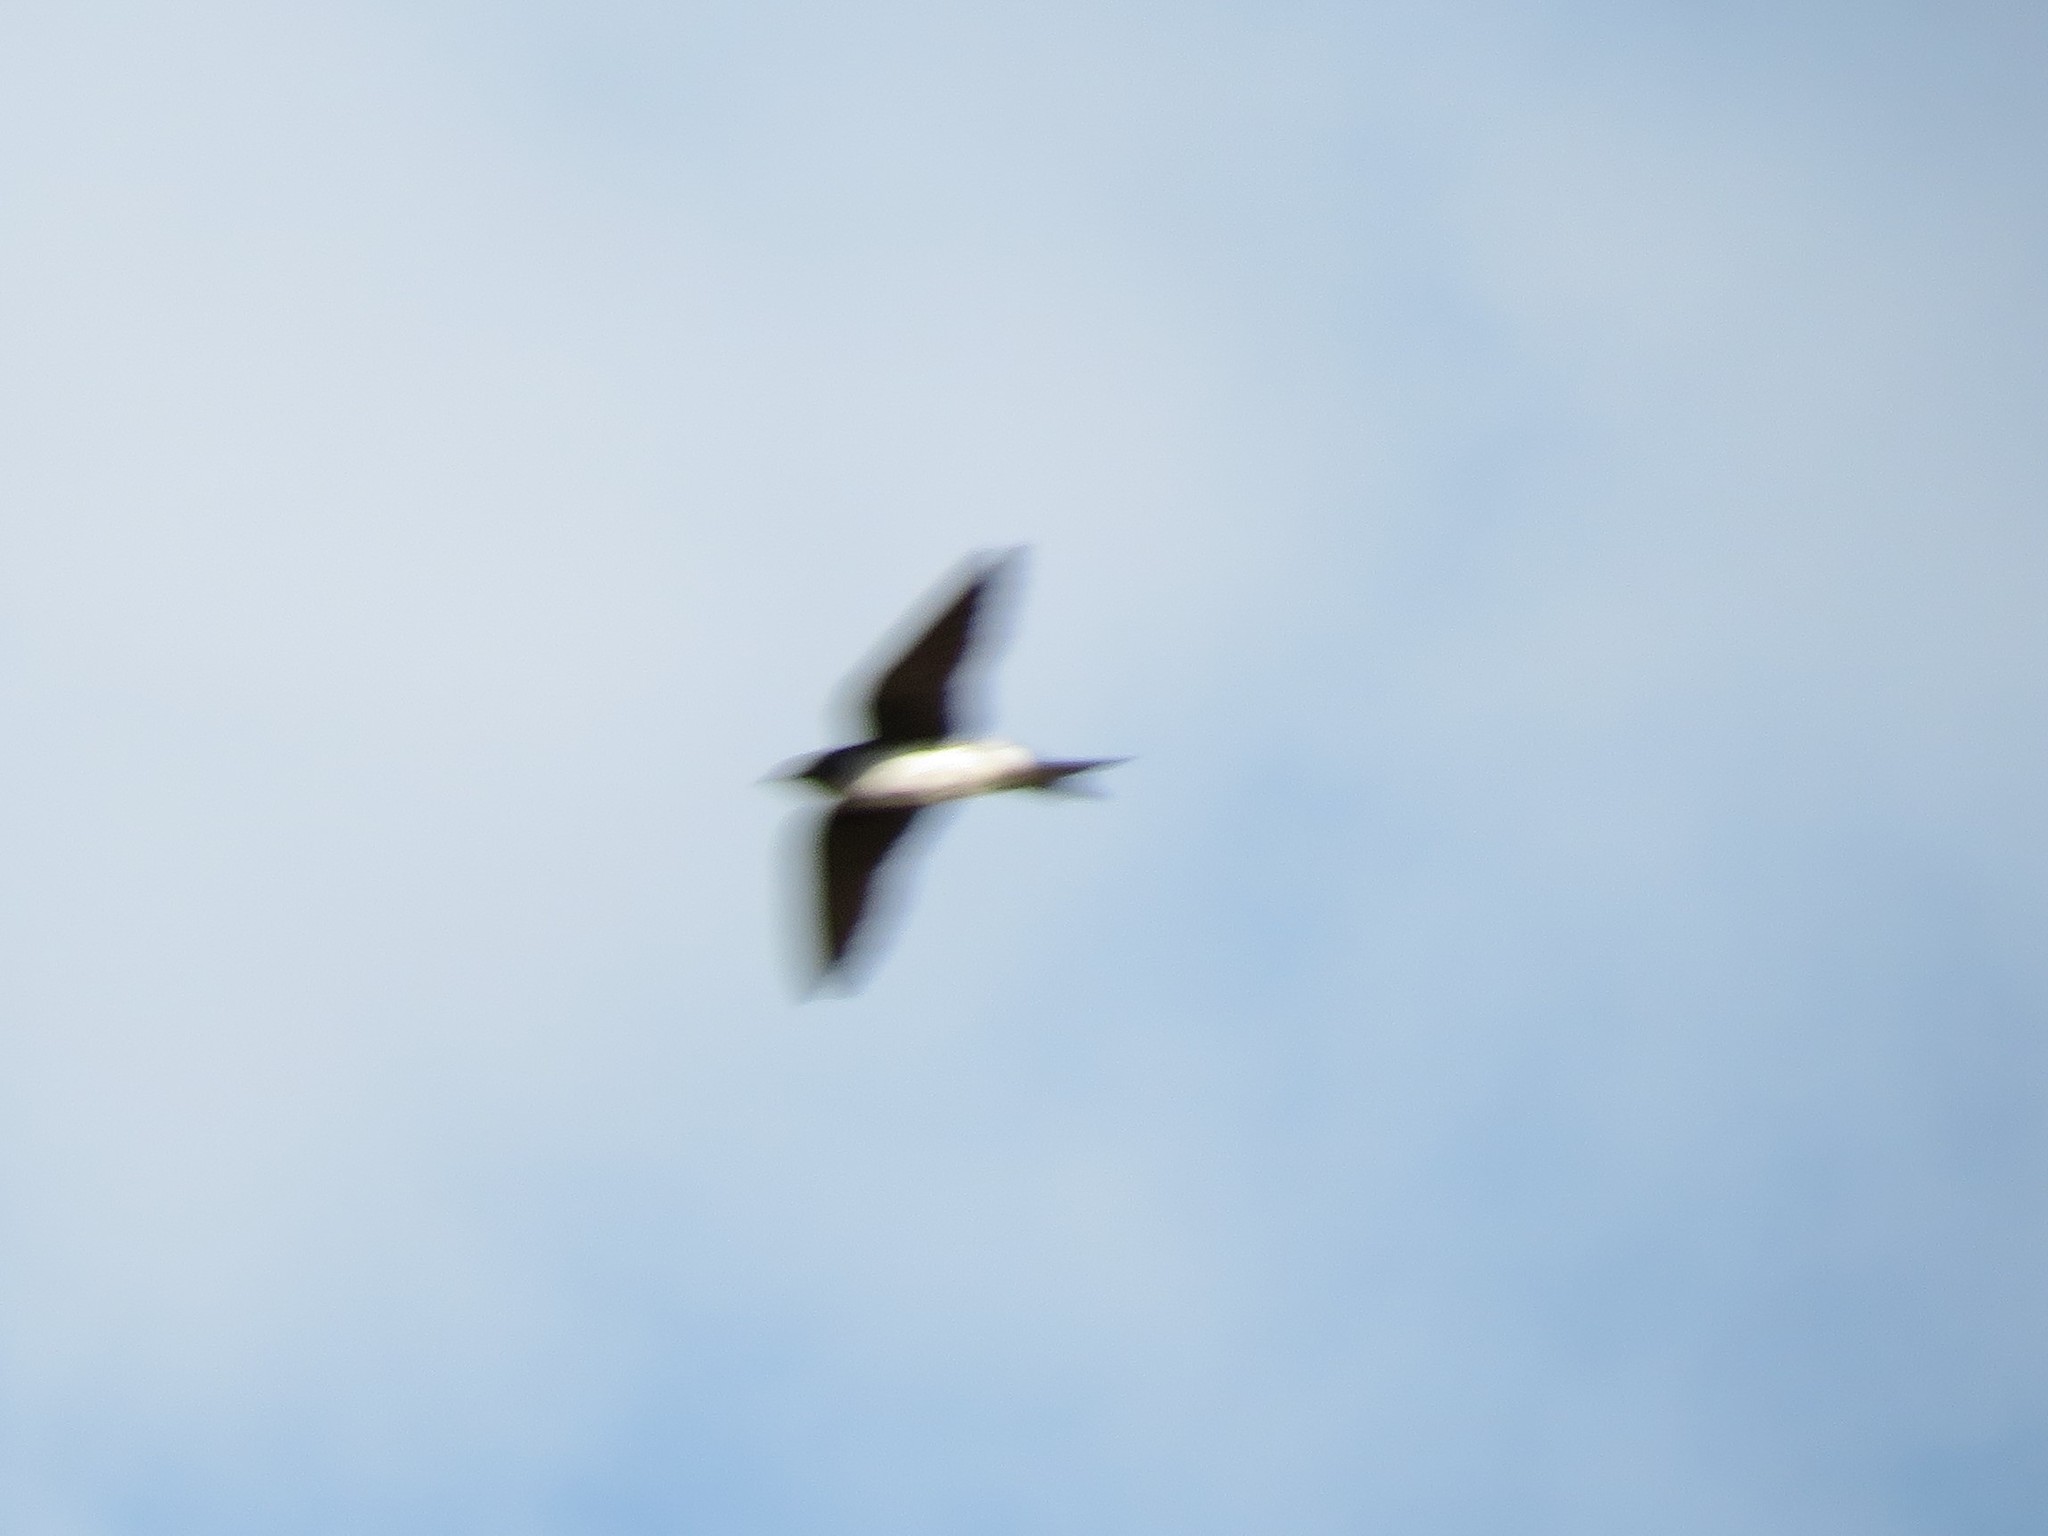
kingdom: Animalia
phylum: Chordata
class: Aves
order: Passeriformes
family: Hirundinidae
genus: Progne
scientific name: Progne chalybea
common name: Grey-breasted martin
